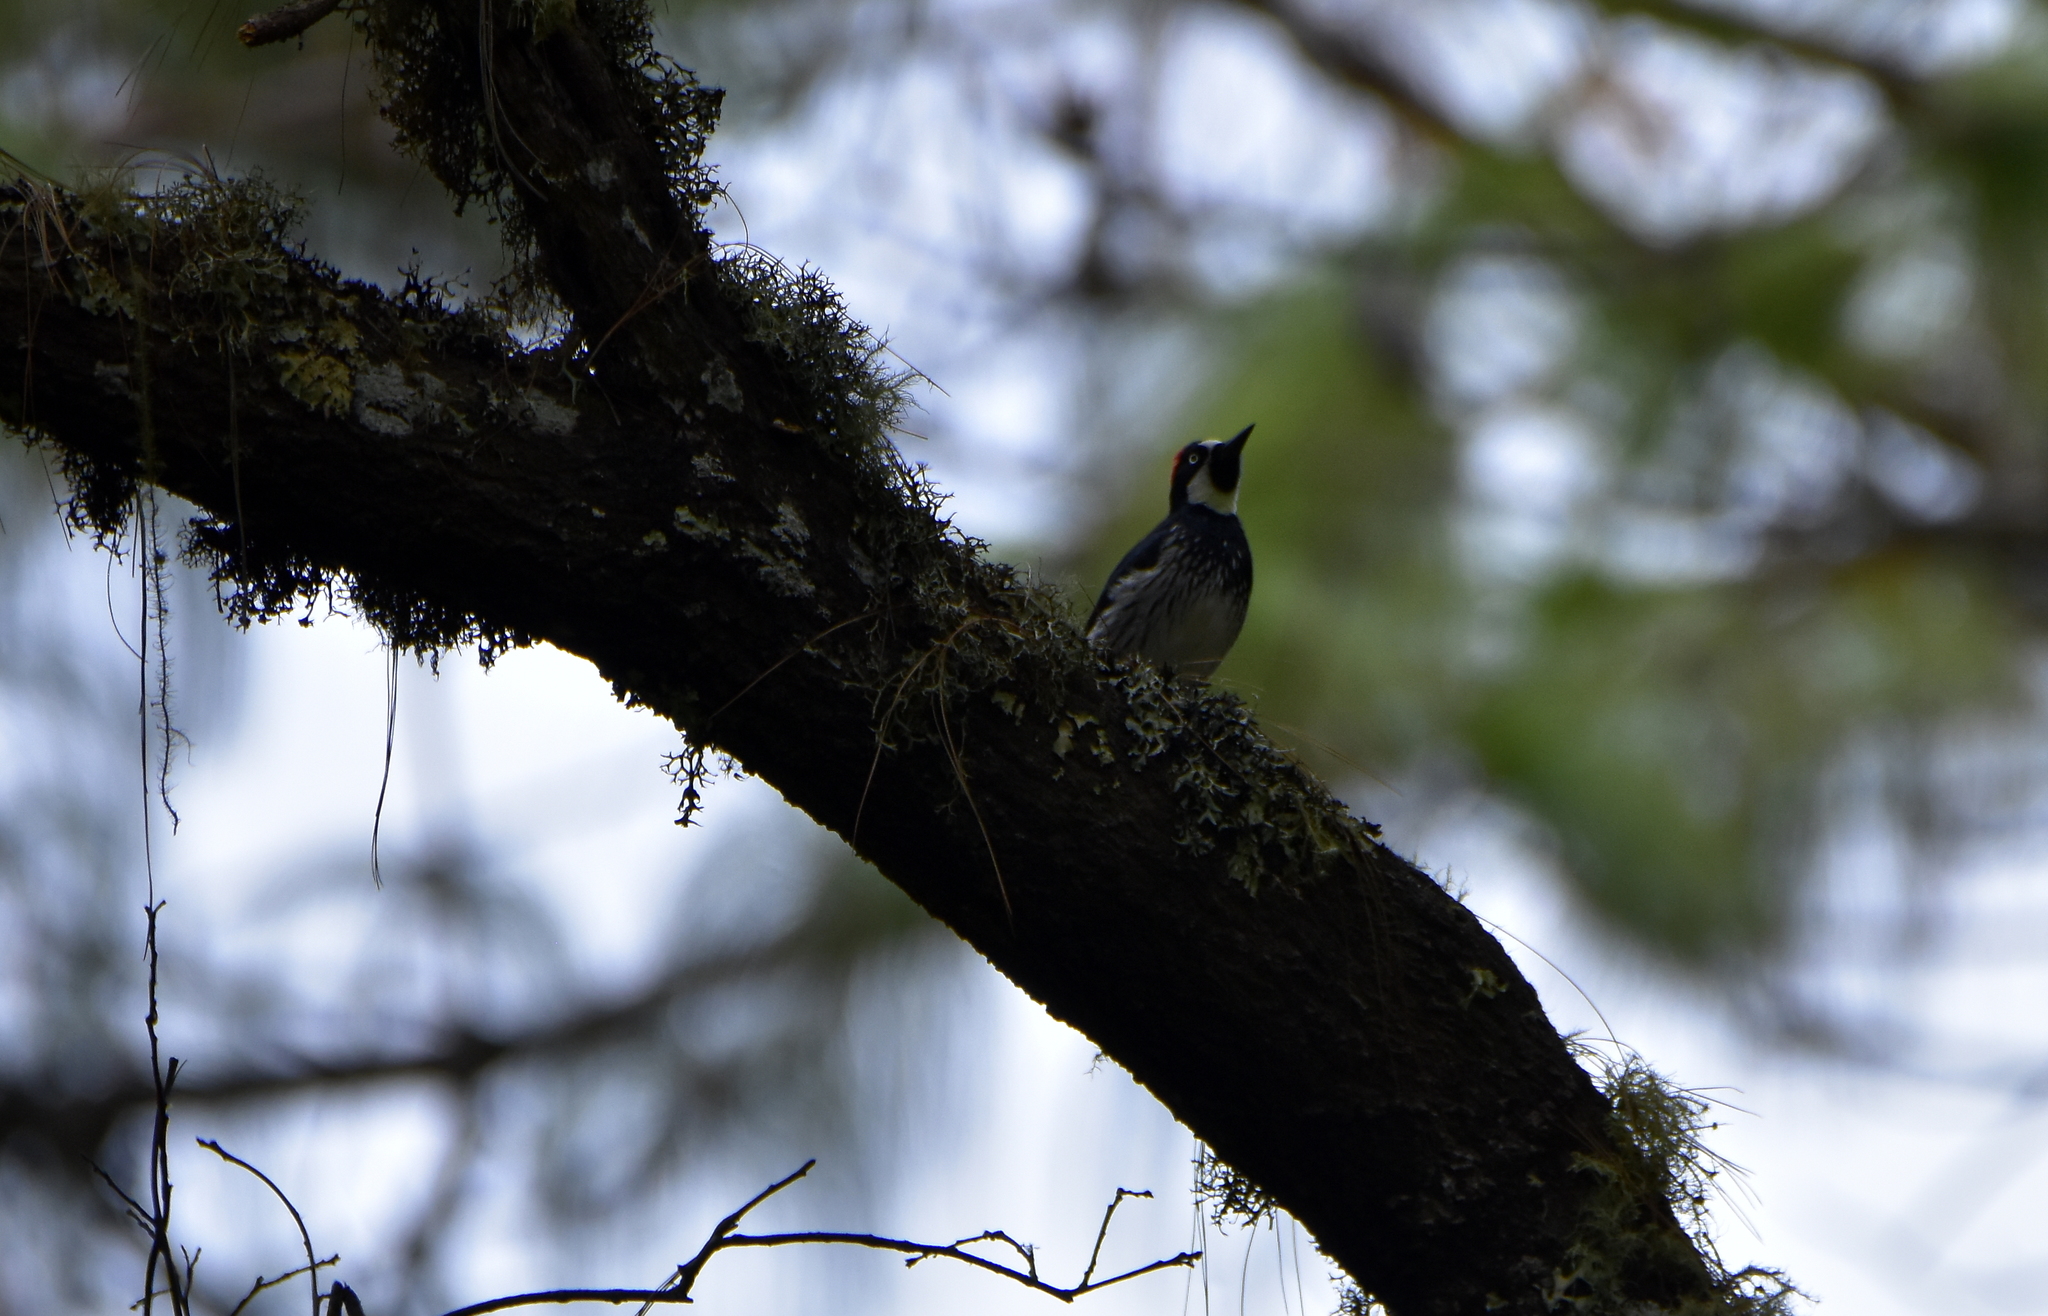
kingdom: Animalia
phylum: Chordata
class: Aves
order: Piciformes
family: Picidae
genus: Melanerpes
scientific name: Melanerpes formicivorus
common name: Acorn woodpecker
